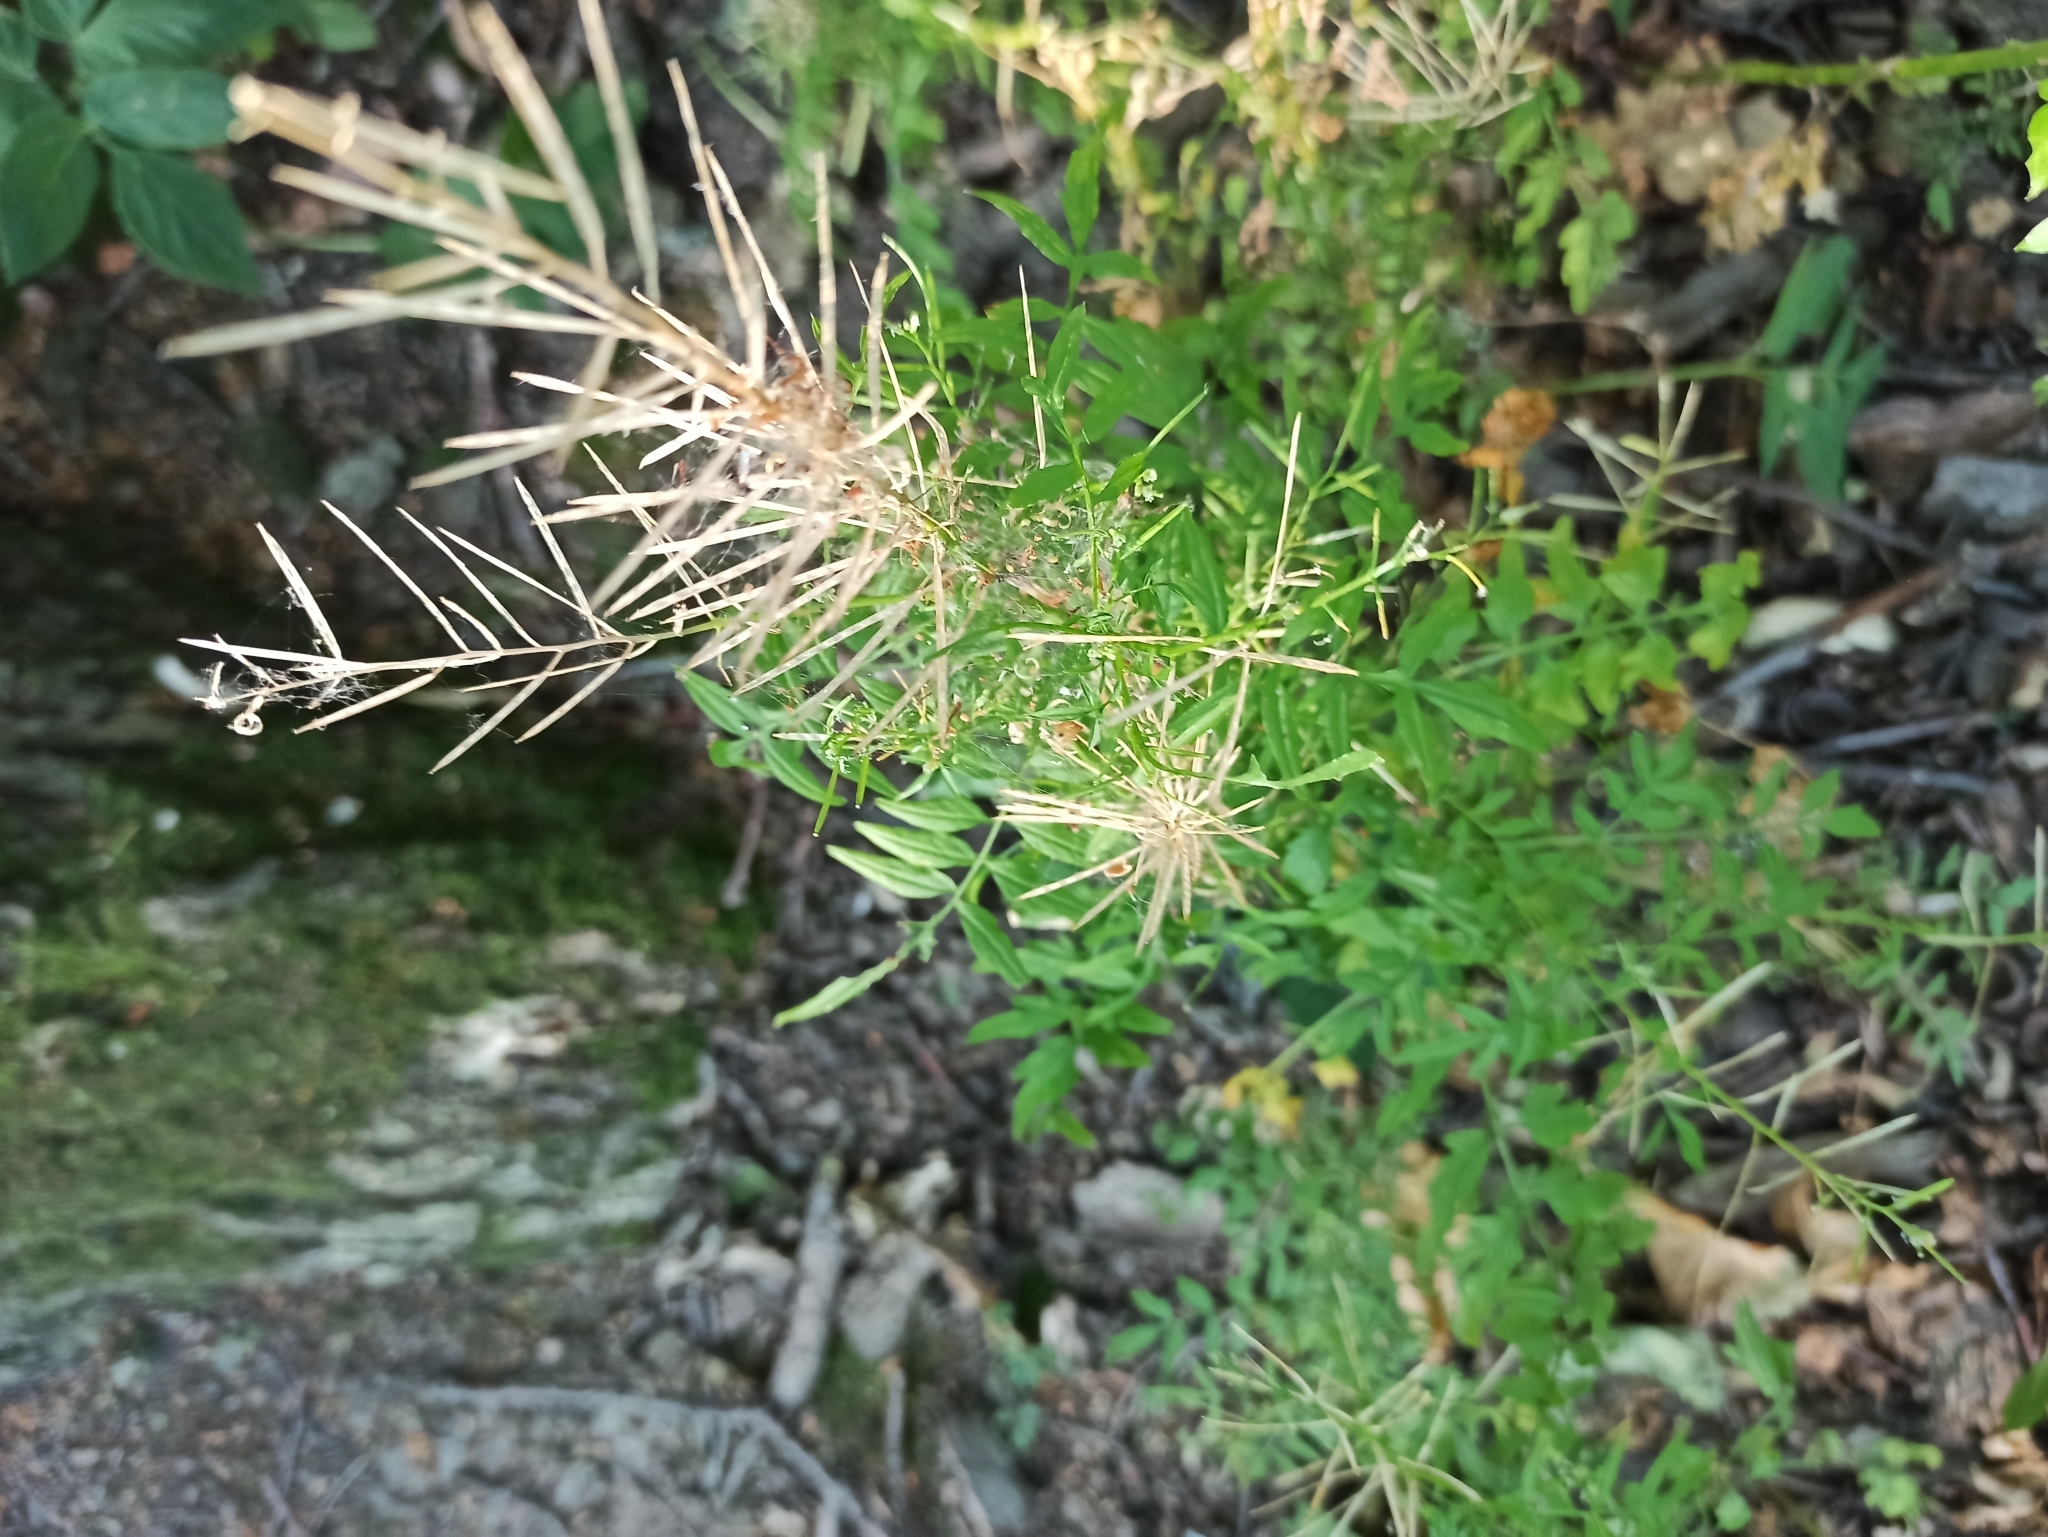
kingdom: Plantae
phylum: Tracheophyta
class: Magnoliopsida
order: Brassicales
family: Brassicaceae
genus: Cardamine
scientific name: Cardamine impatiens
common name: Narrow-leaved bitter-cress
